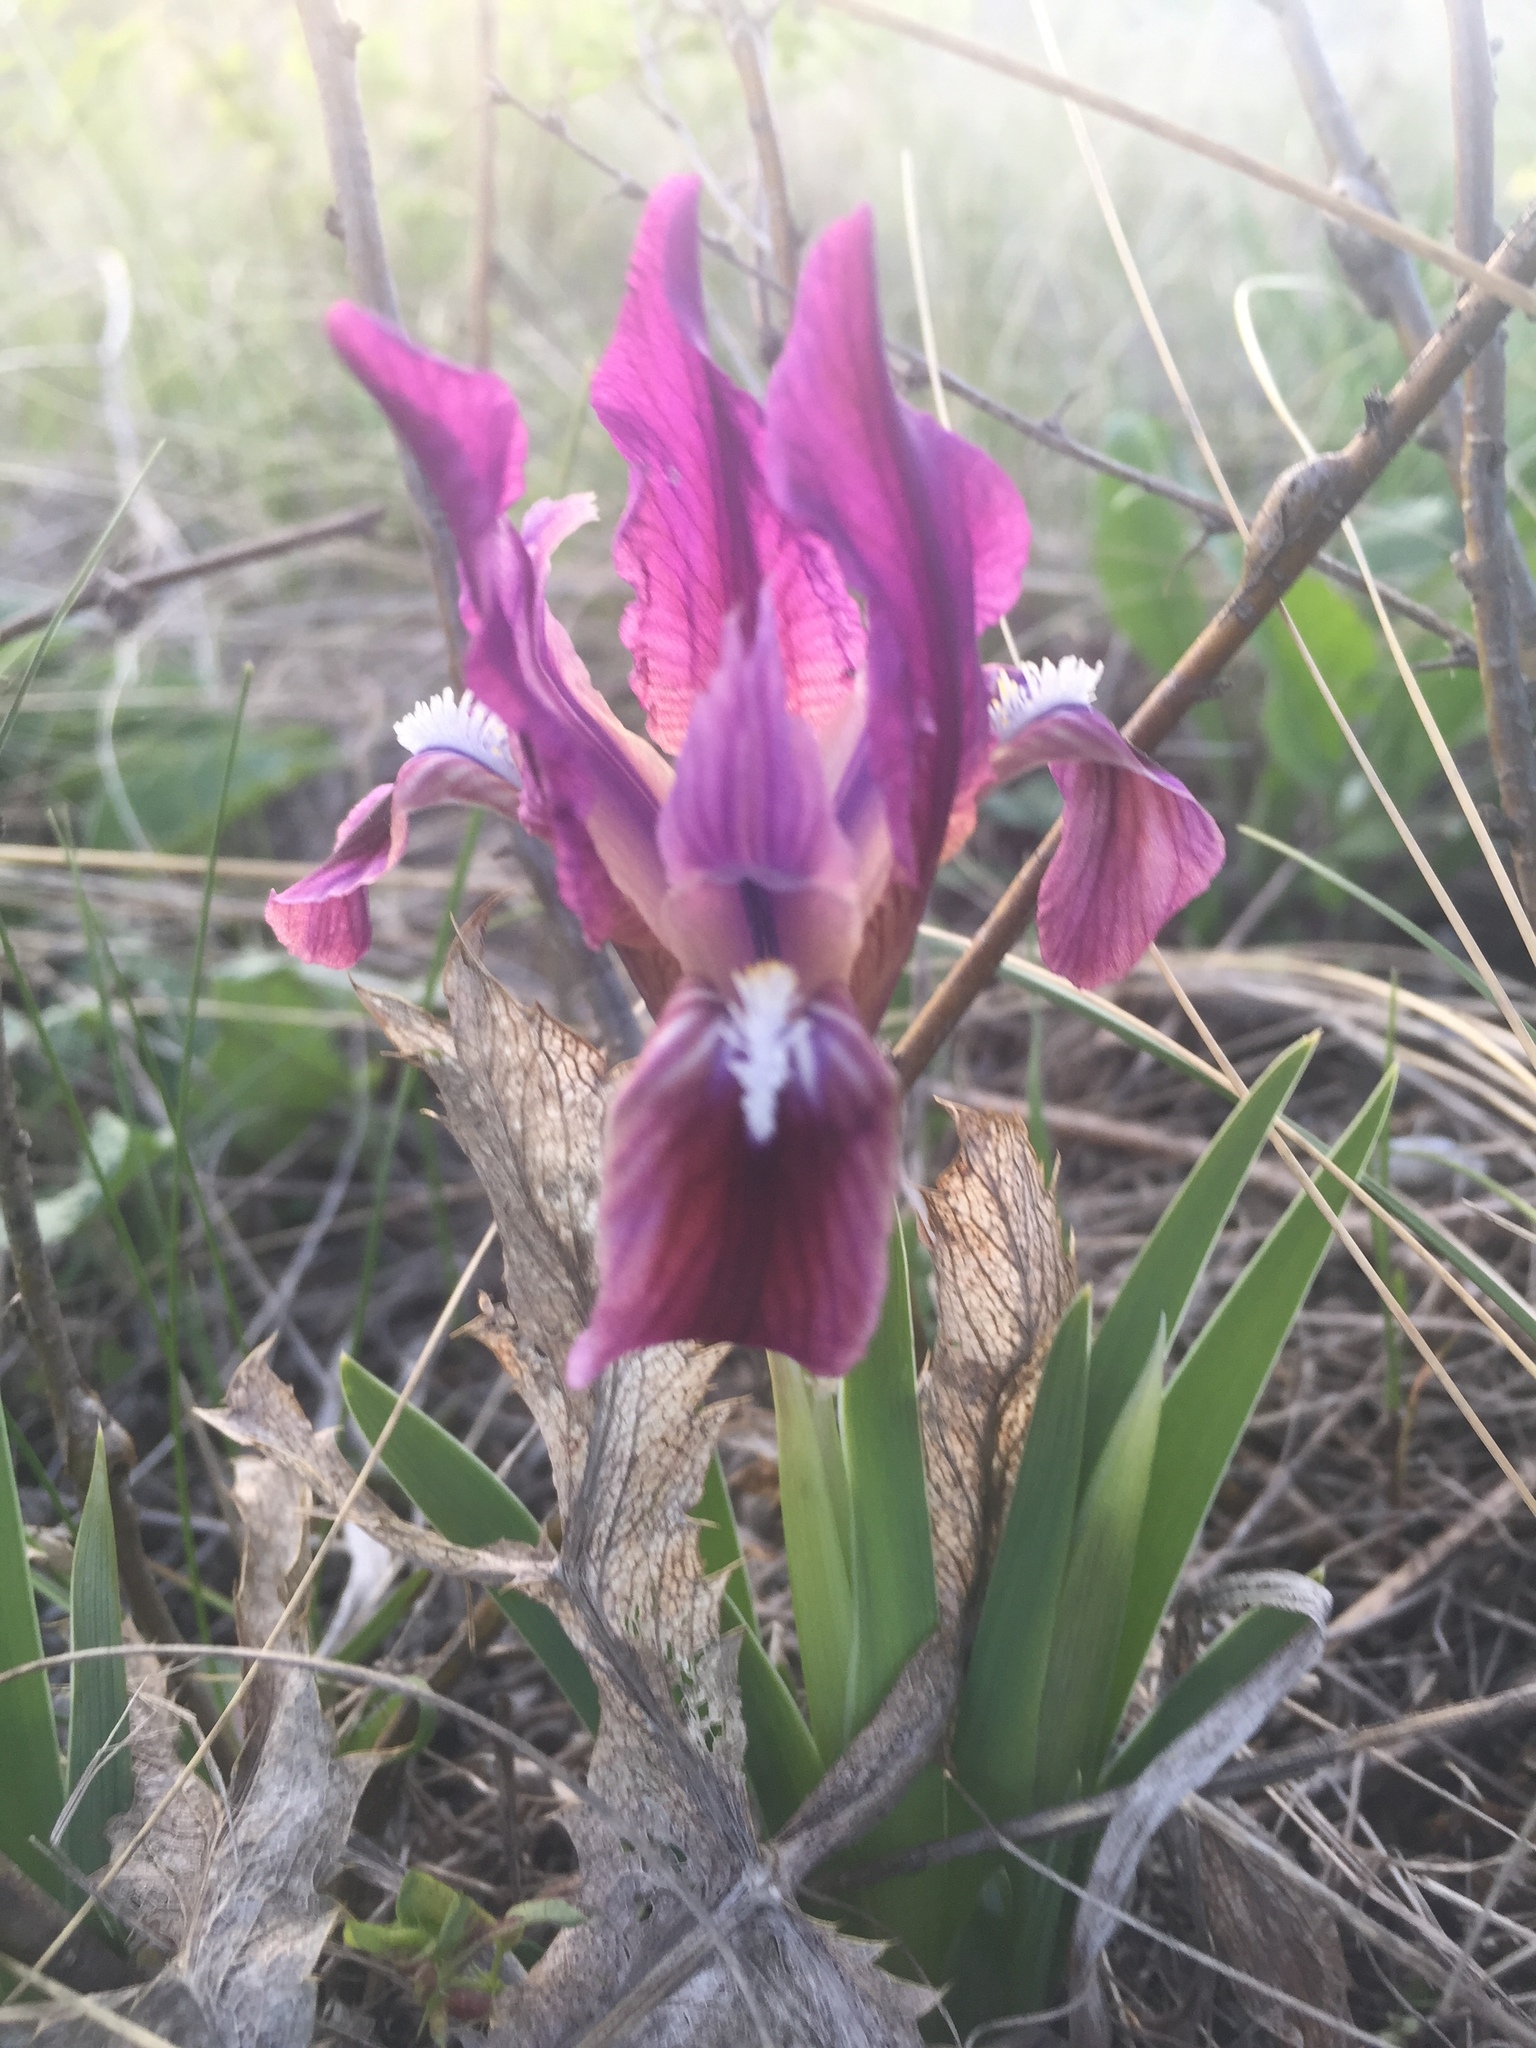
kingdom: Plantae
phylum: Tracheophyta
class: Liliopsida
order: Asparagales
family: Iridaceae
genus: Iris
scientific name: Iris pumila
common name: Dwarf iris
